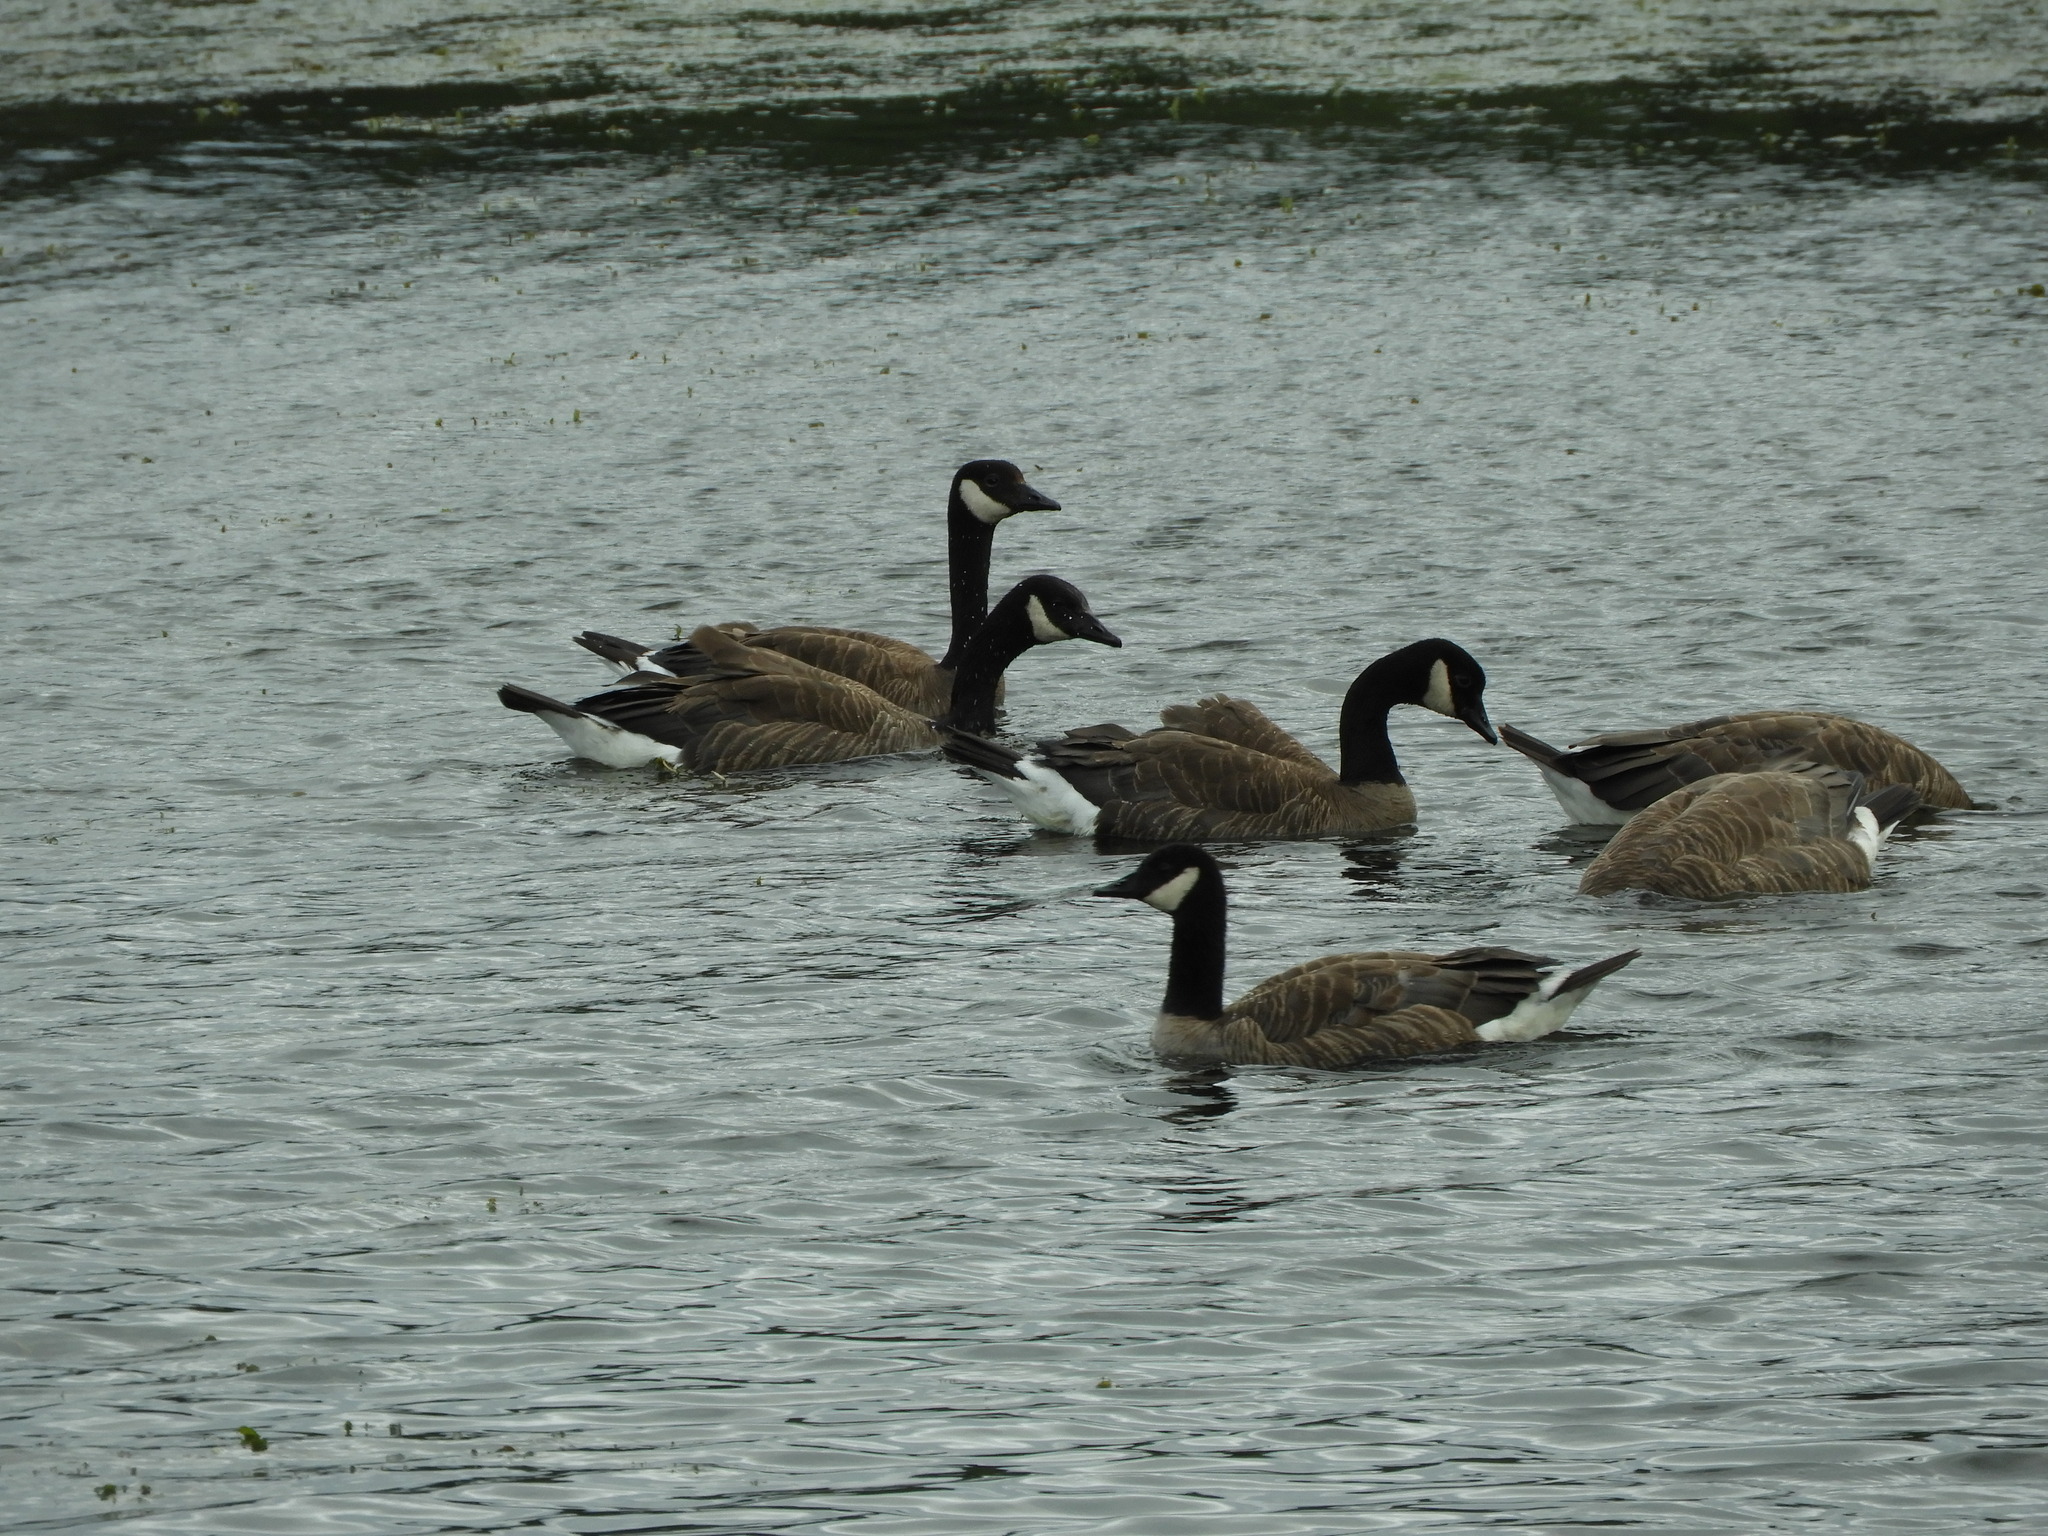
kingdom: Animalia
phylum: Chordata
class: Aves
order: Anseriformes
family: Anatidae
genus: Branta
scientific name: Branta canadensis
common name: Canada goose
